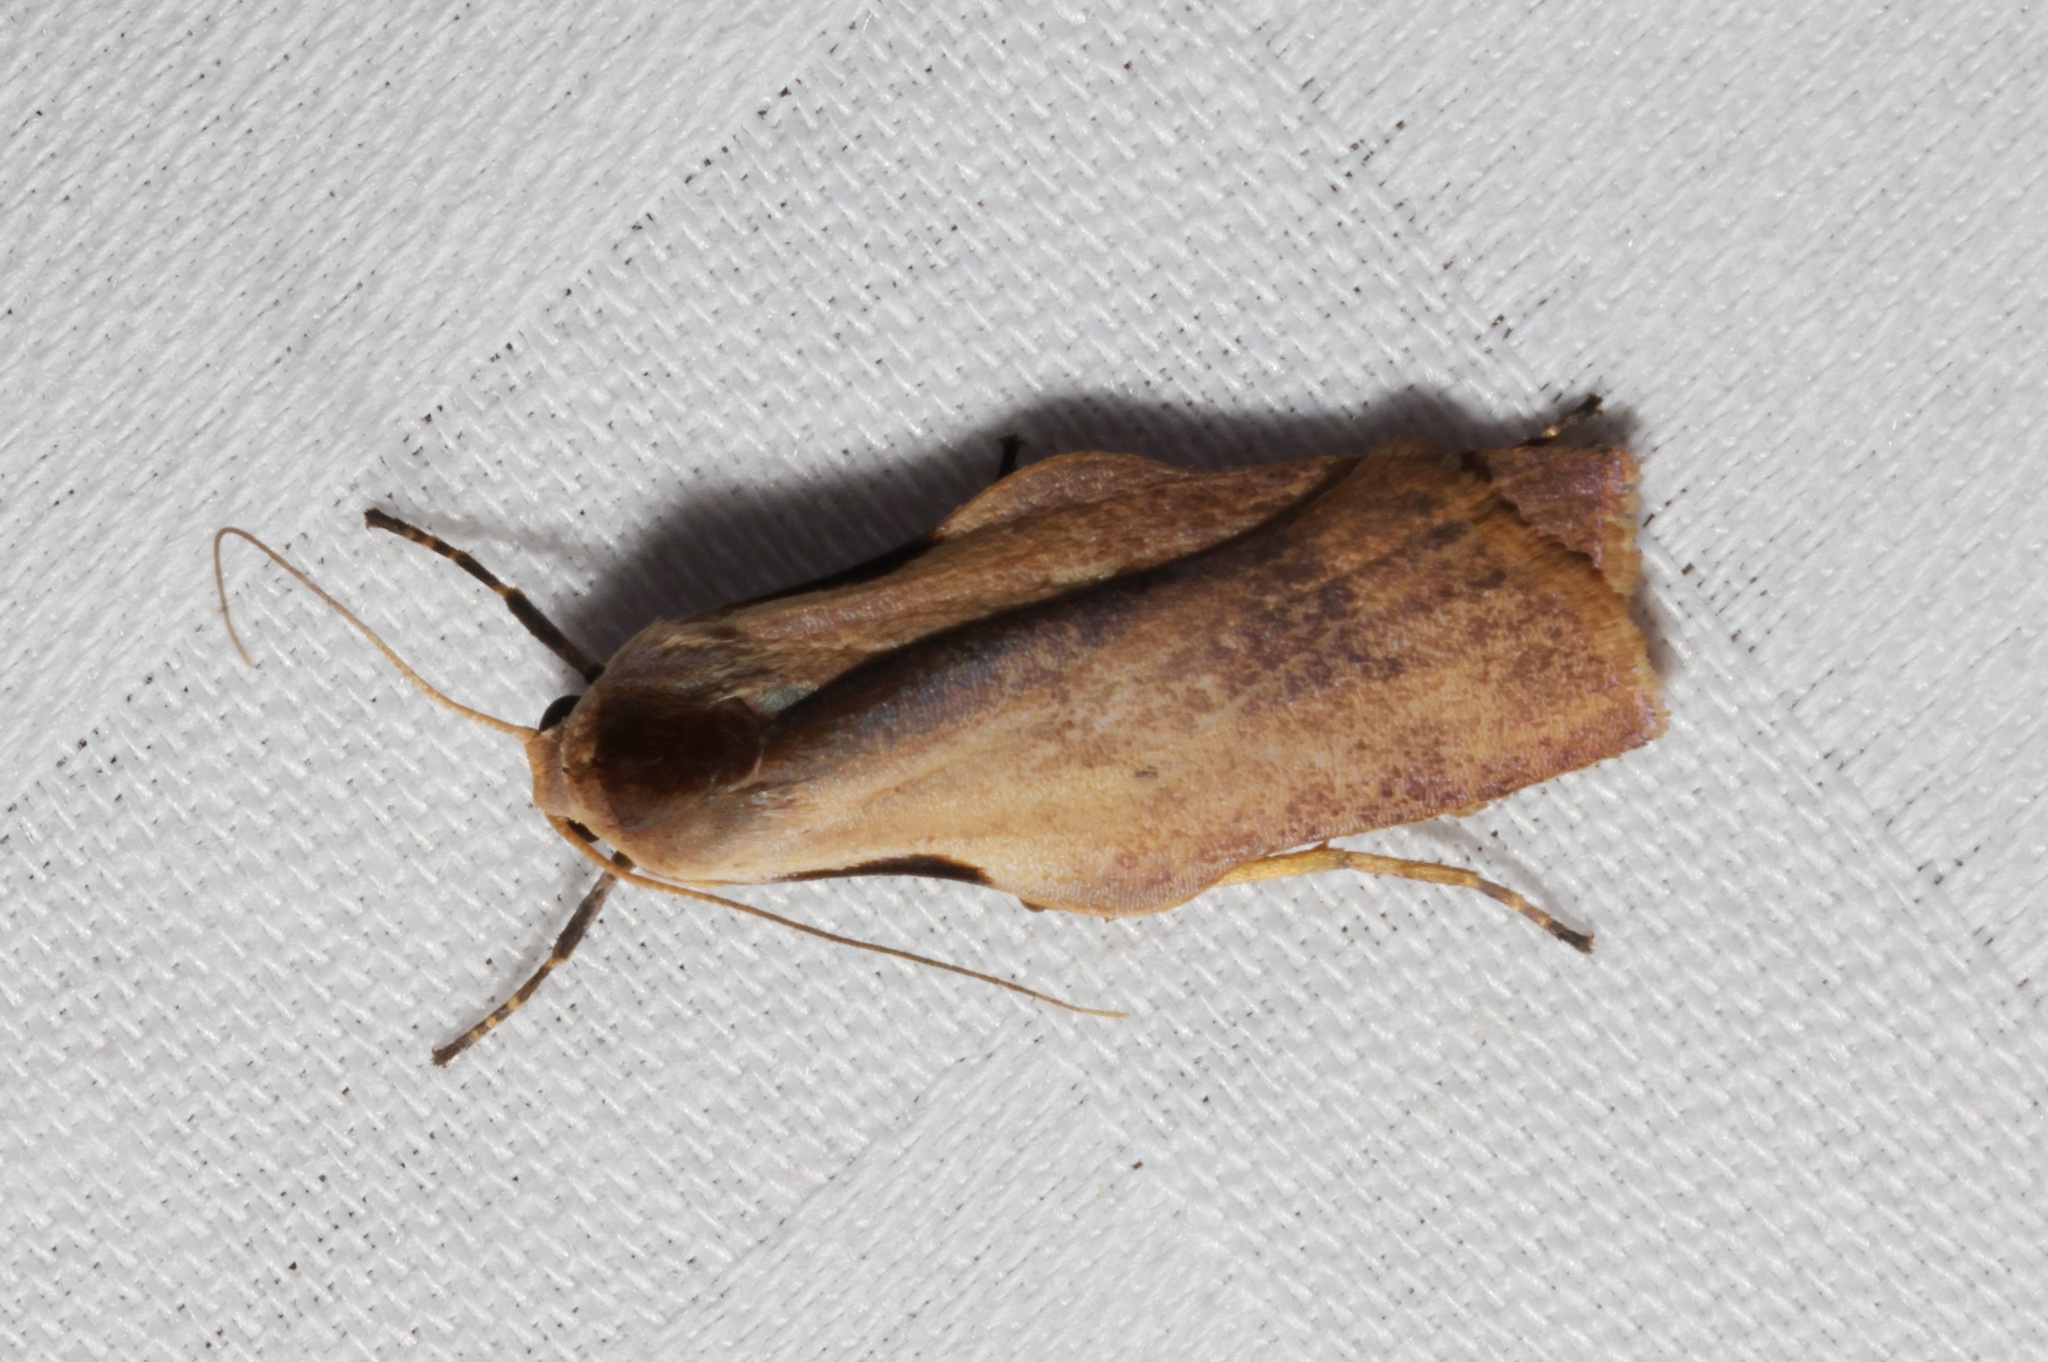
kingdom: Animalia
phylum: Arthropoda
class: Insecta
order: Lepidoptera
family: Erebidae
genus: Teulisna
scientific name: Teulisna tumida
